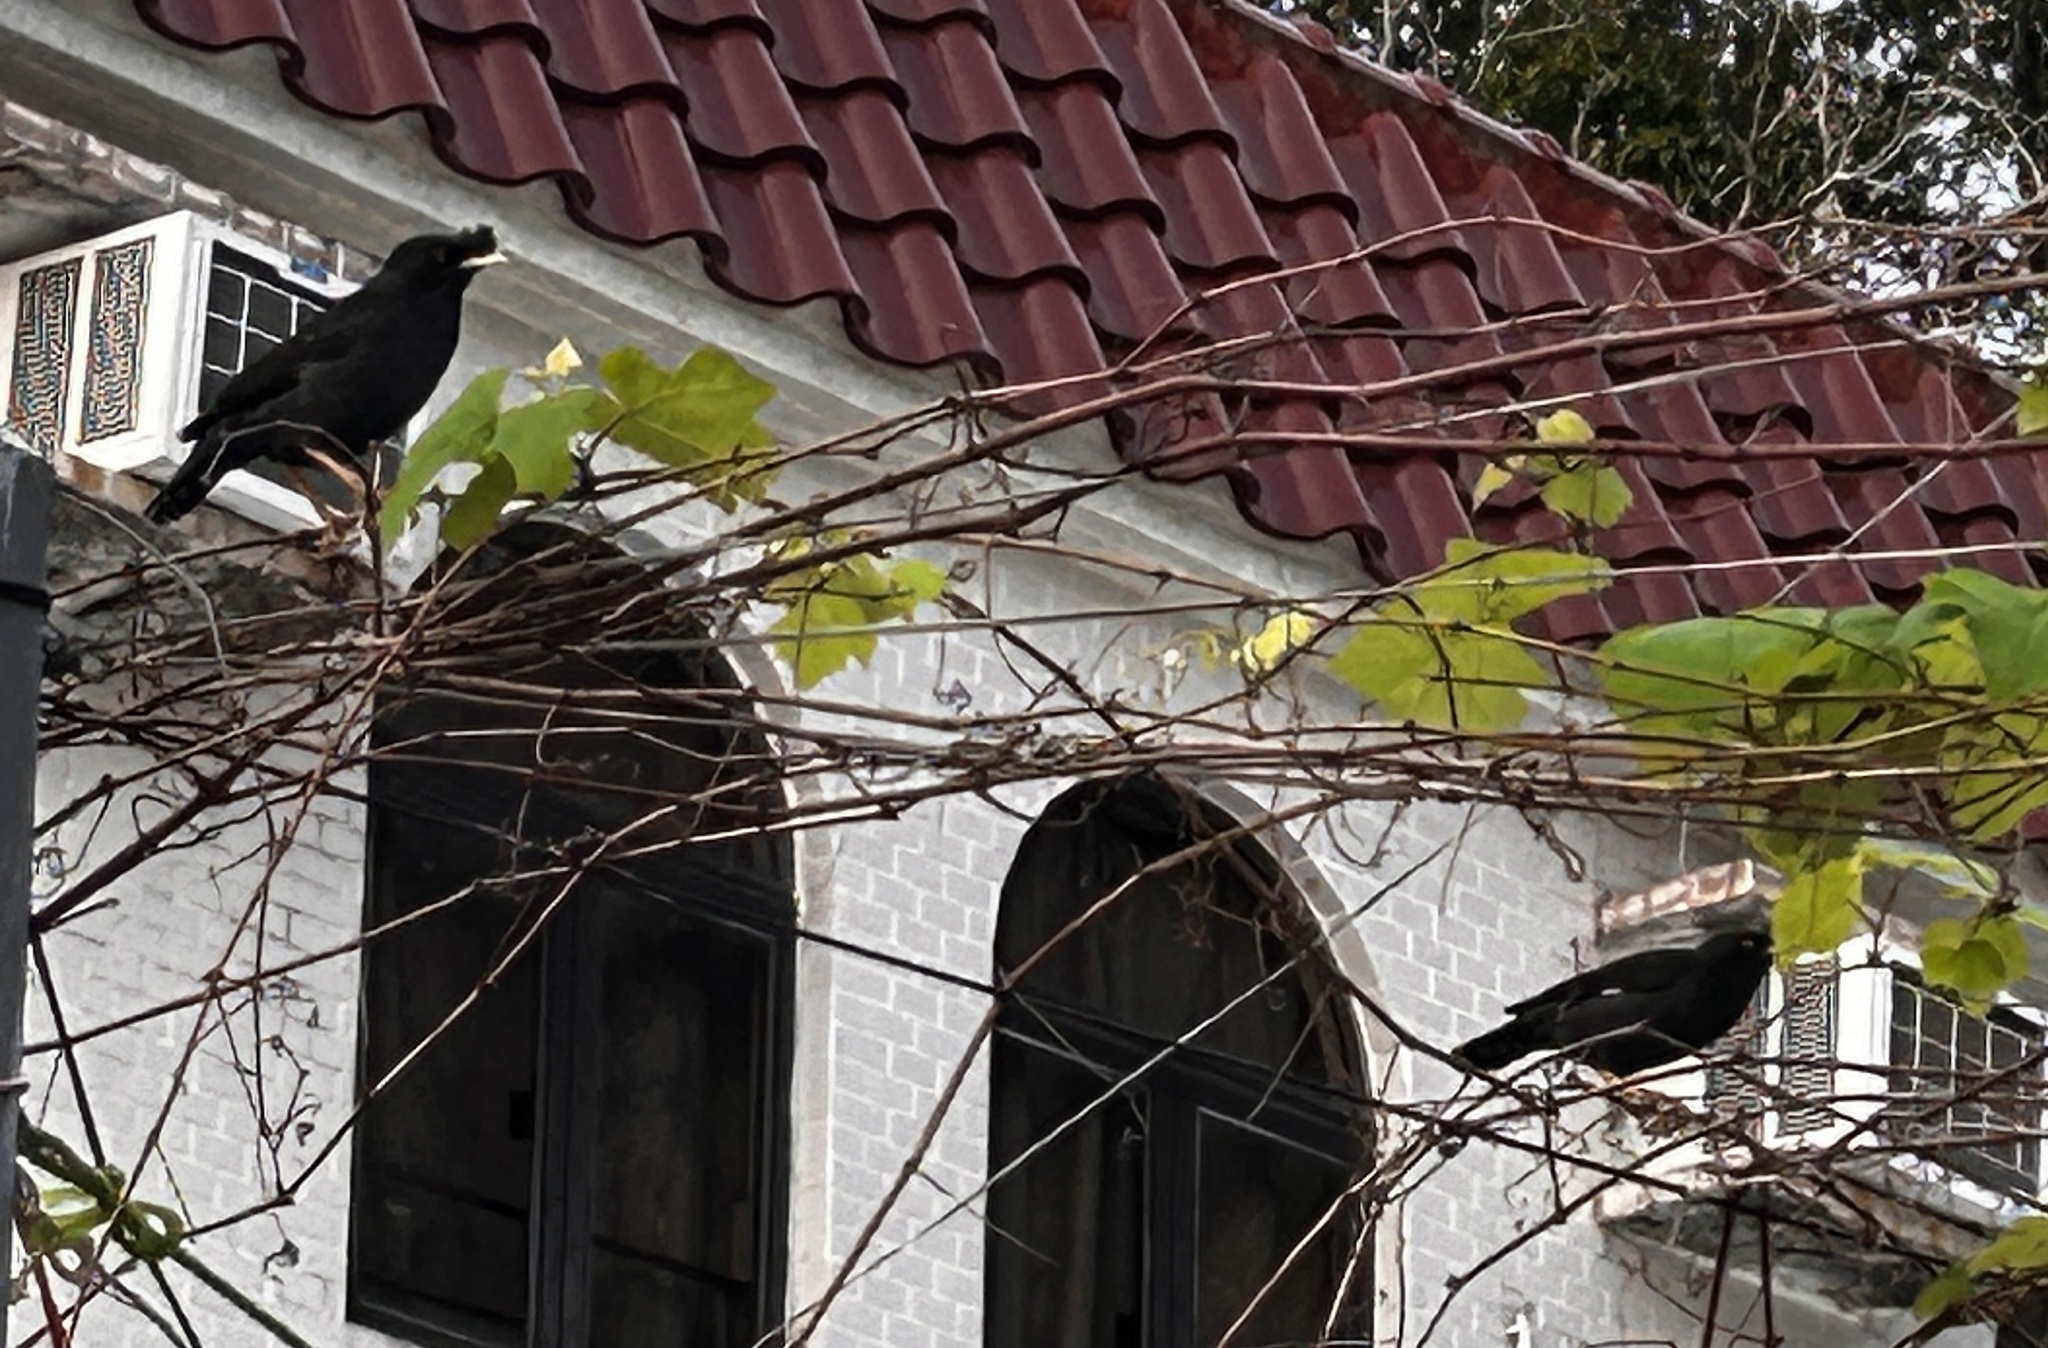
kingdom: Animalia
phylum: Chordata
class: Aves
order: Passeriformes
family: Sturnidae
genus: Acridotheres
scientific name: Acridotheres cristatellus
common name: Crested myna
